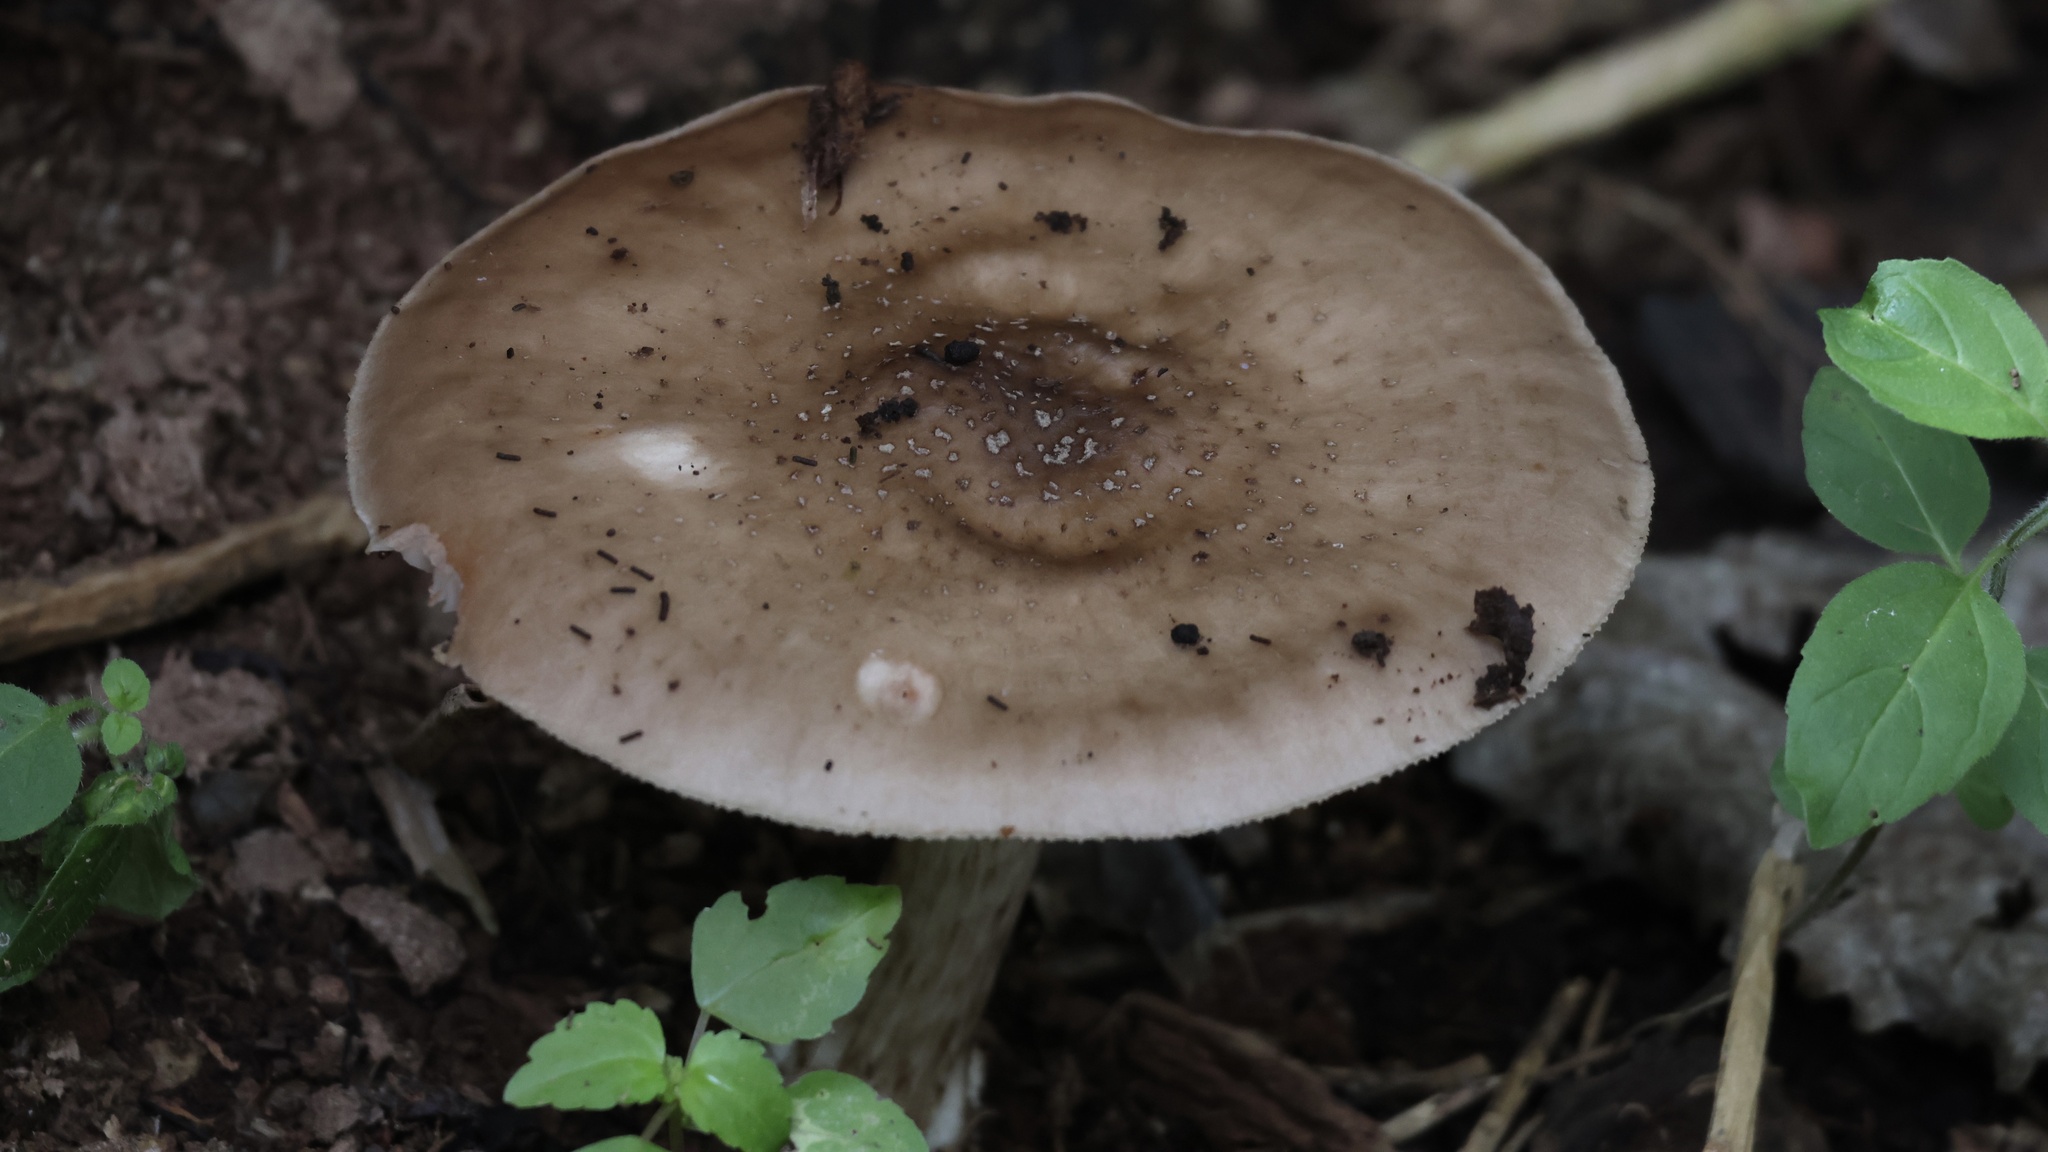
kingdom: Fungi
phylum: Basidiomycota
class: Agaricomycetes
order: Agaricales
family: Pluteaceae
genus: Pluteus
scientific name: Pluteus cervinus
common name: Deer shield
